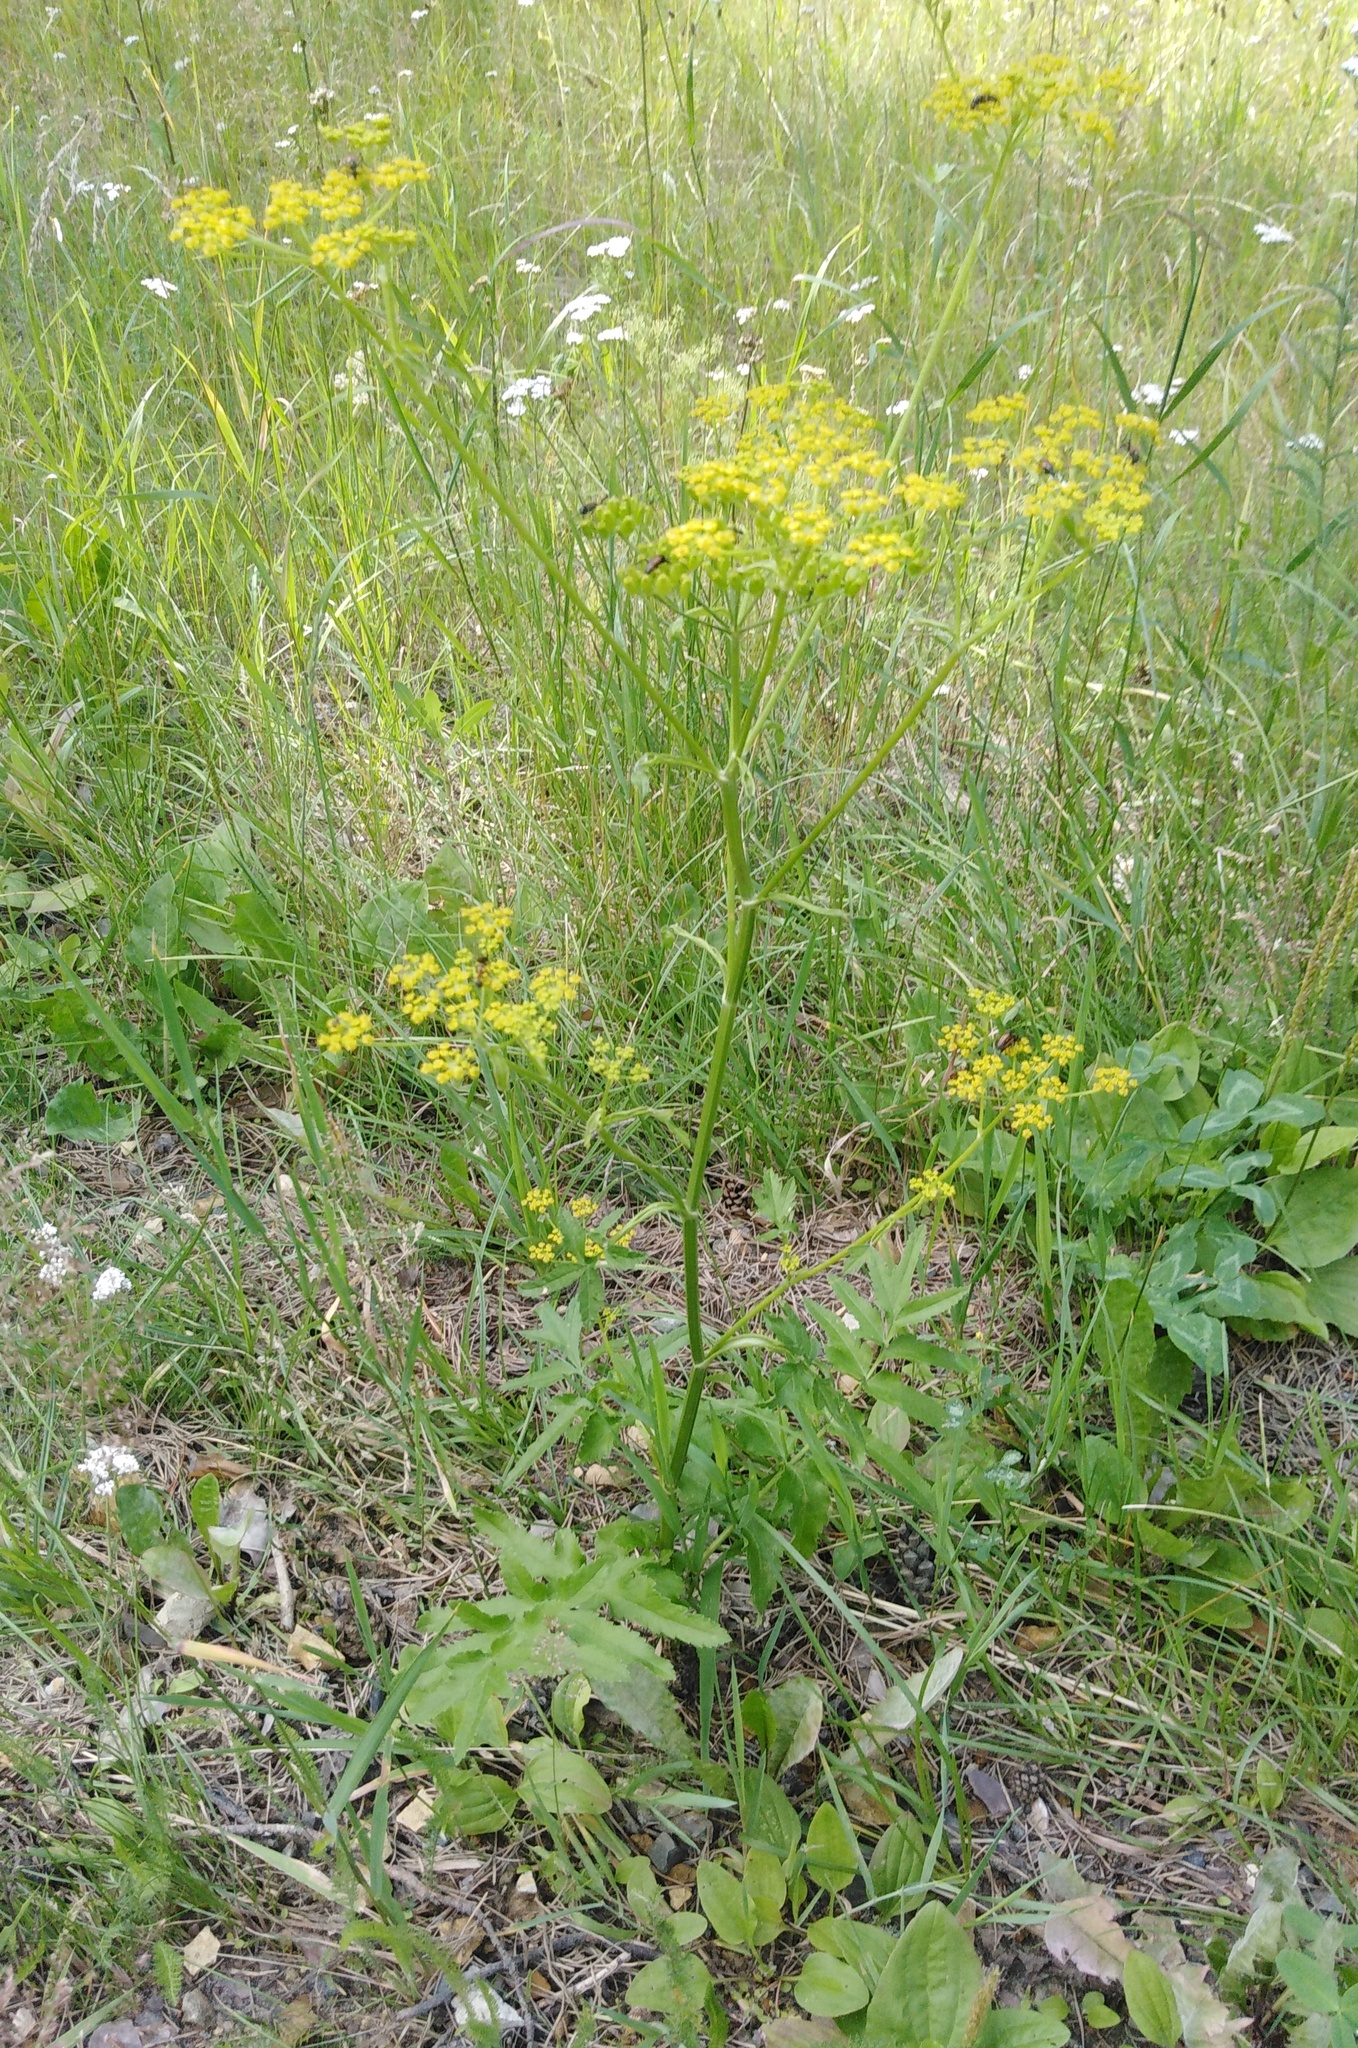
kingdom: Plantae
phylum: Tracheophyta
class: Magnoliopsida
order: Apiales
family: Apiaceae
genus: Pastinaca
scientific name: Pastinaca sativa
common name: Wild parsnip
